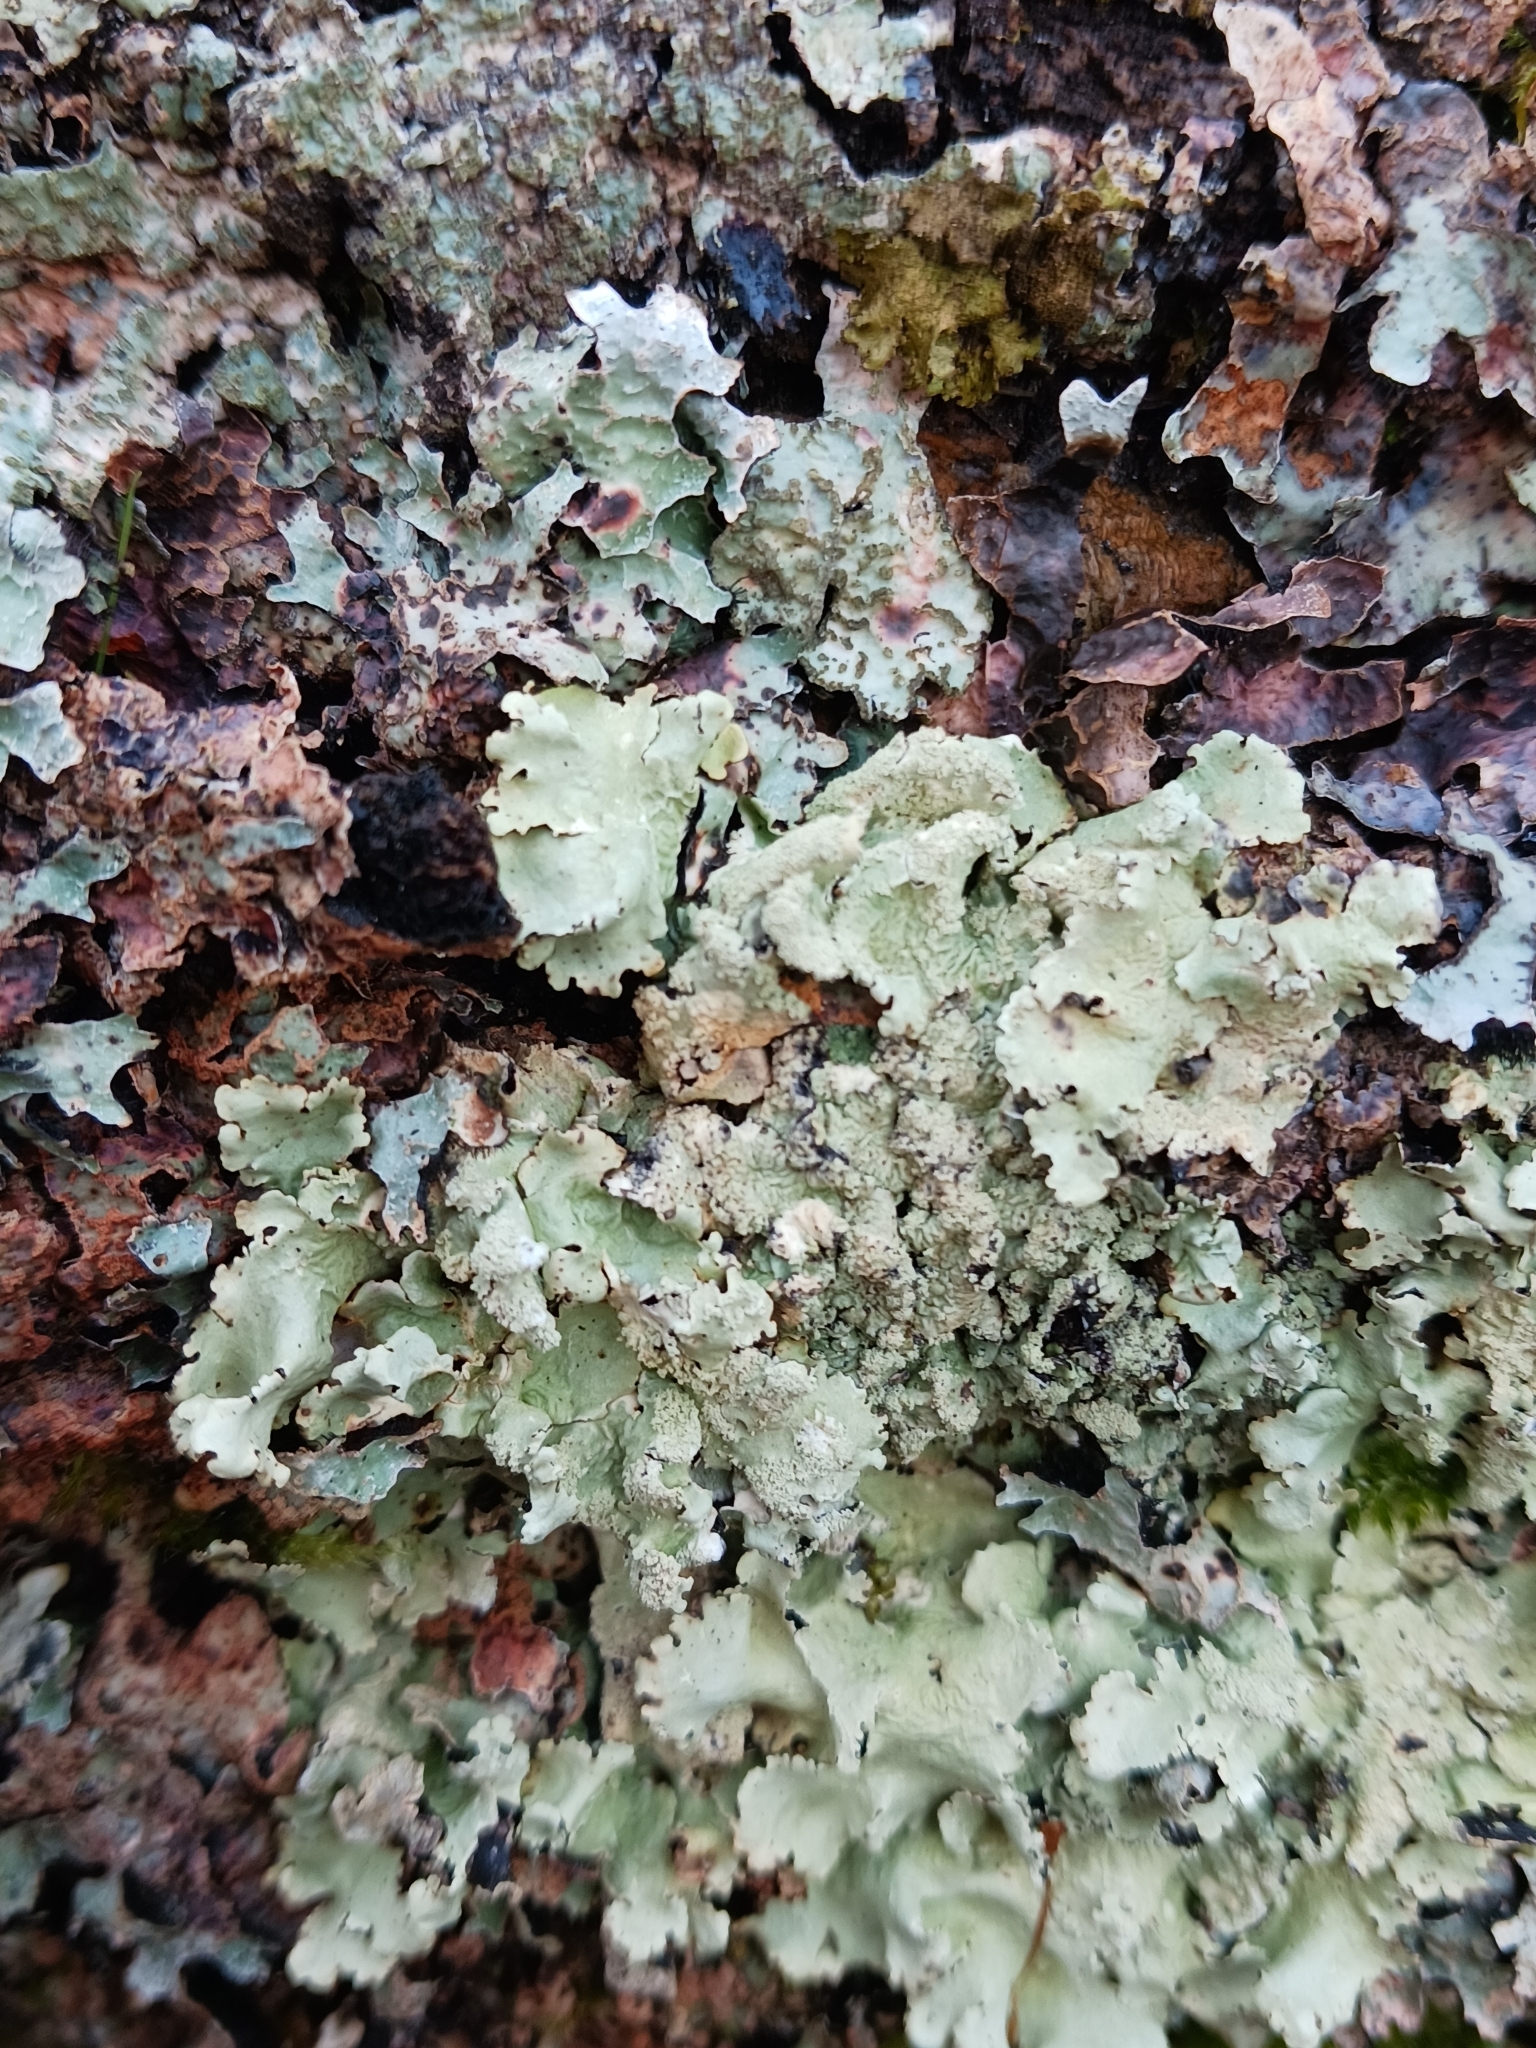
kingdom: Fungi
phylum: Ascomycota
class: Lecanoromycetes
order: Lecanorales
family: Parmeliaceae
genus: Flavoparmelia
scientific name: Flavoparmelia caperata
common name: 40-mile per hour lichen
